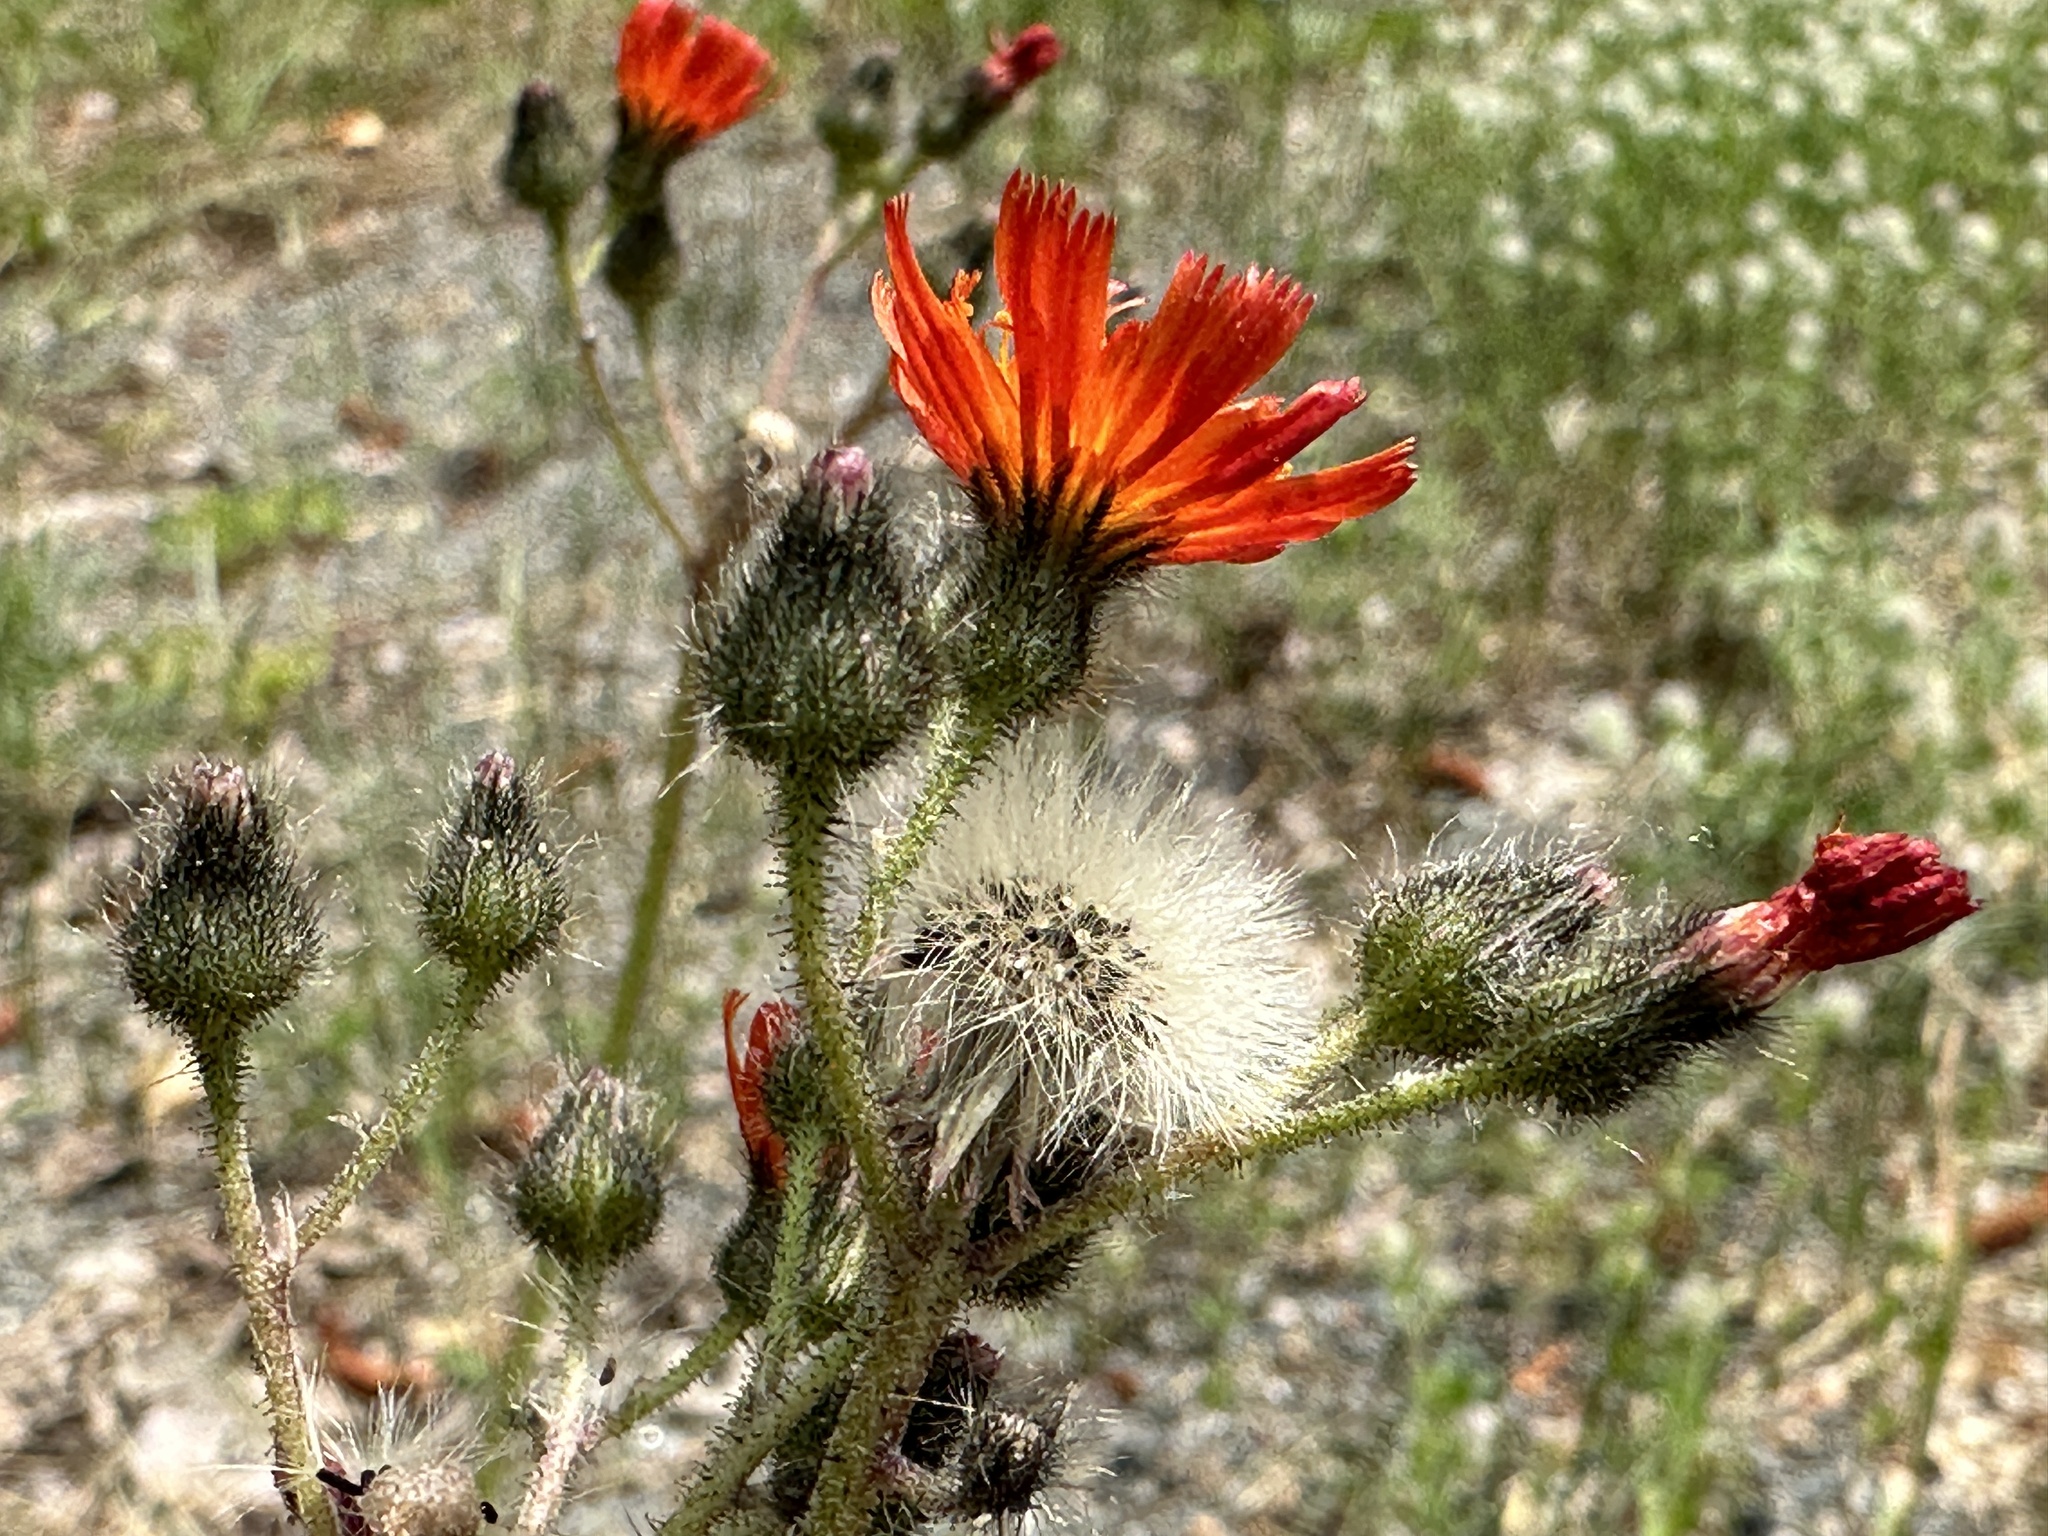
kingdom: Plantae
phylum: Tracheophyta
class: Magnoliopsida
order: Asterales
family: Asteraceae
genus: Pilosella
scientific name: Pilosella aurantiaca
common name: Fox-and-cubs
